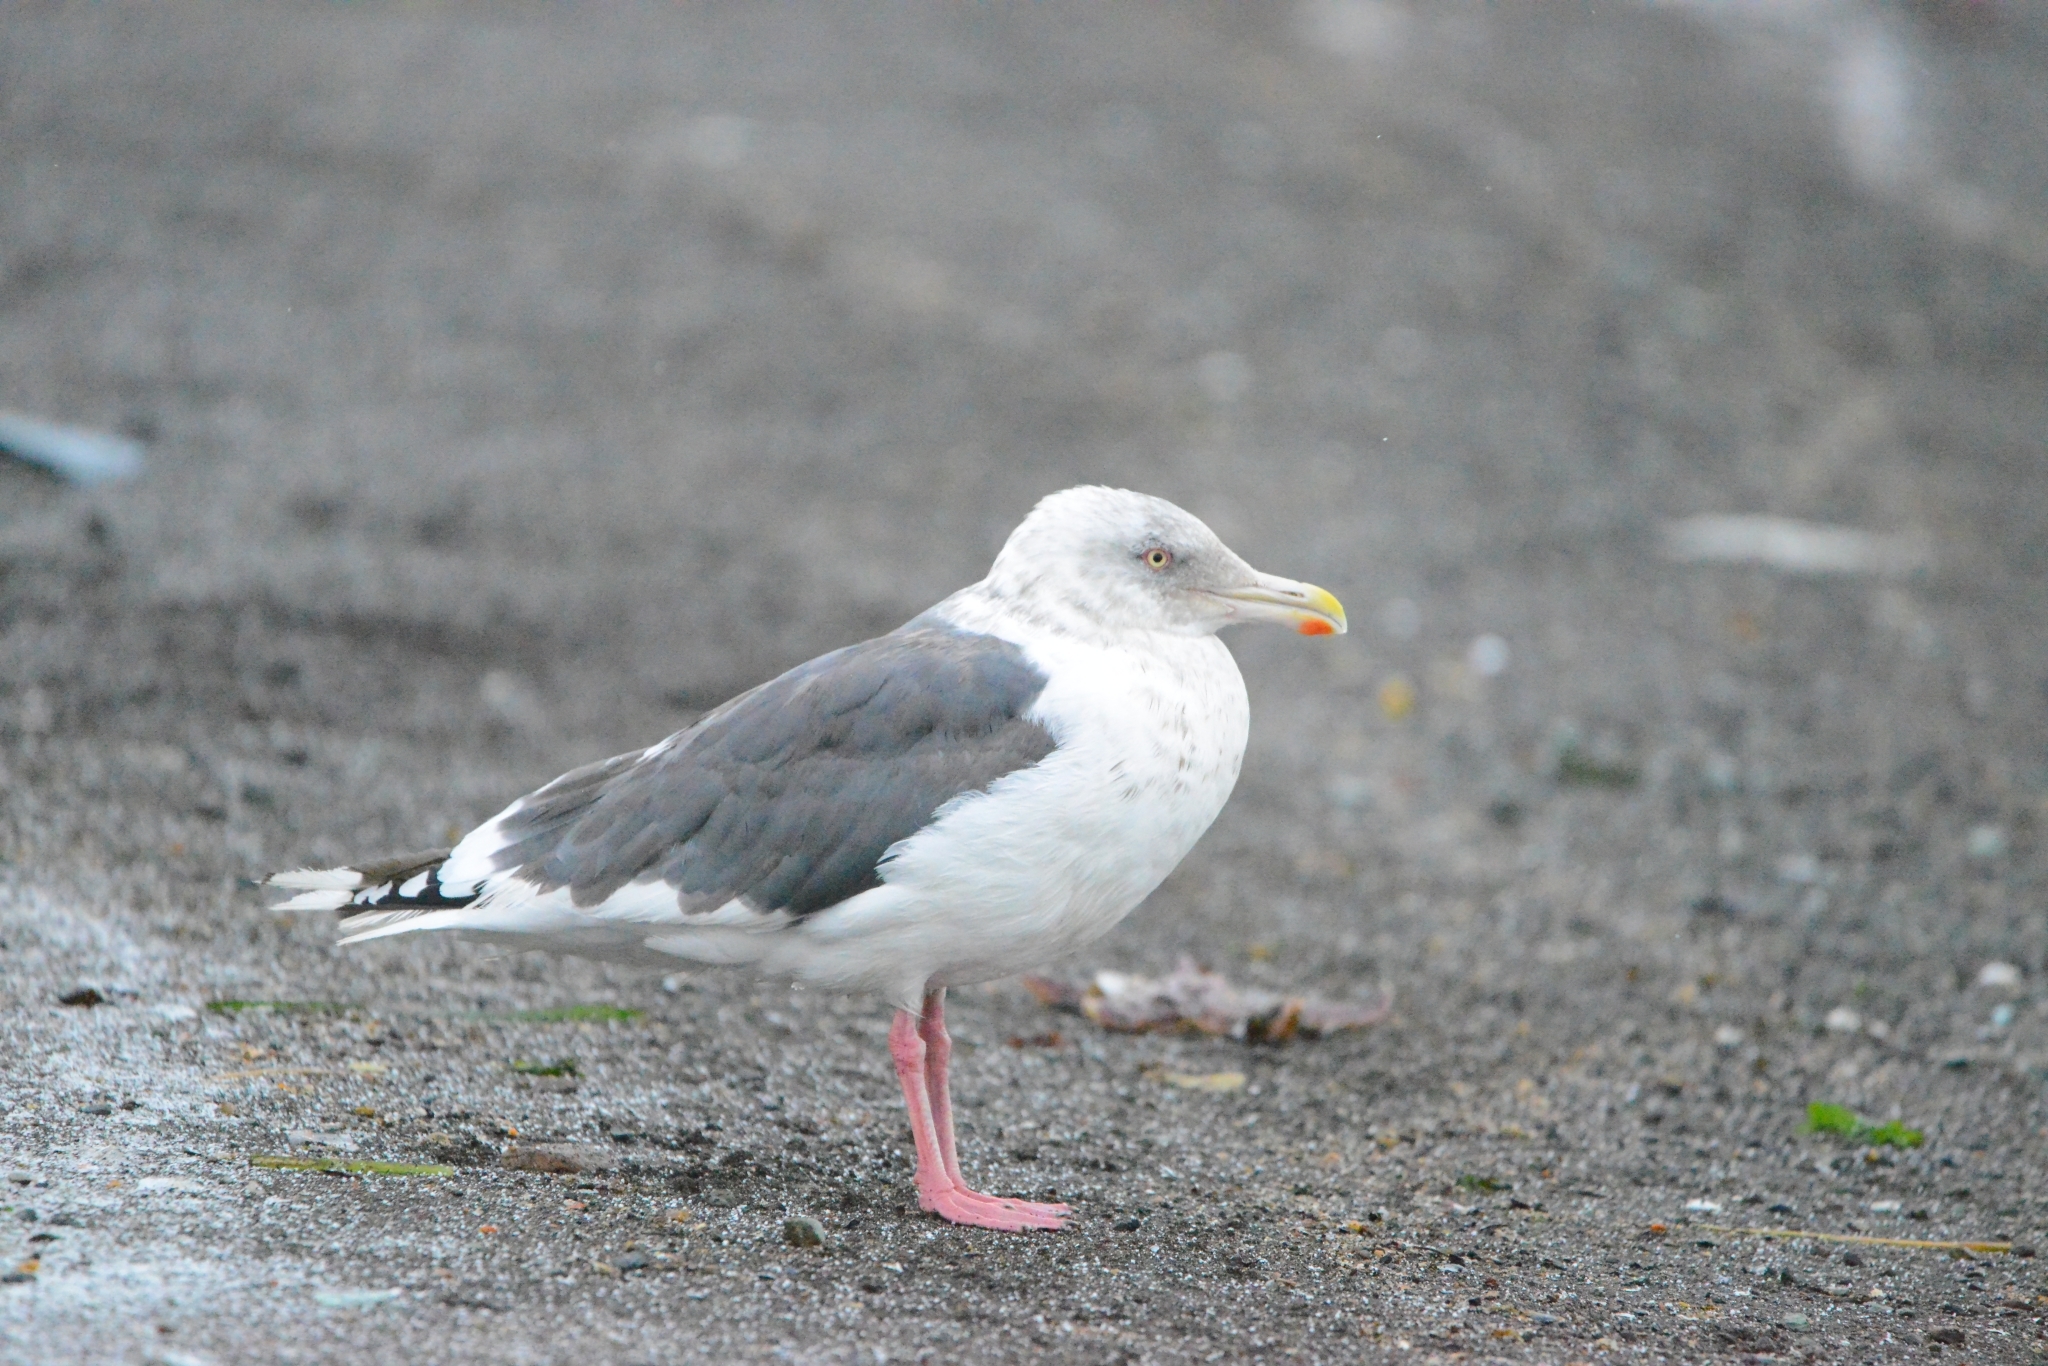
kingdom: Animalia
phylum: Chordata
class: Aves
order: Charadriiformes
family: Laridae
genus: Larus
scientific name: Larus schistisagus
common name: Slaty-backed gull
